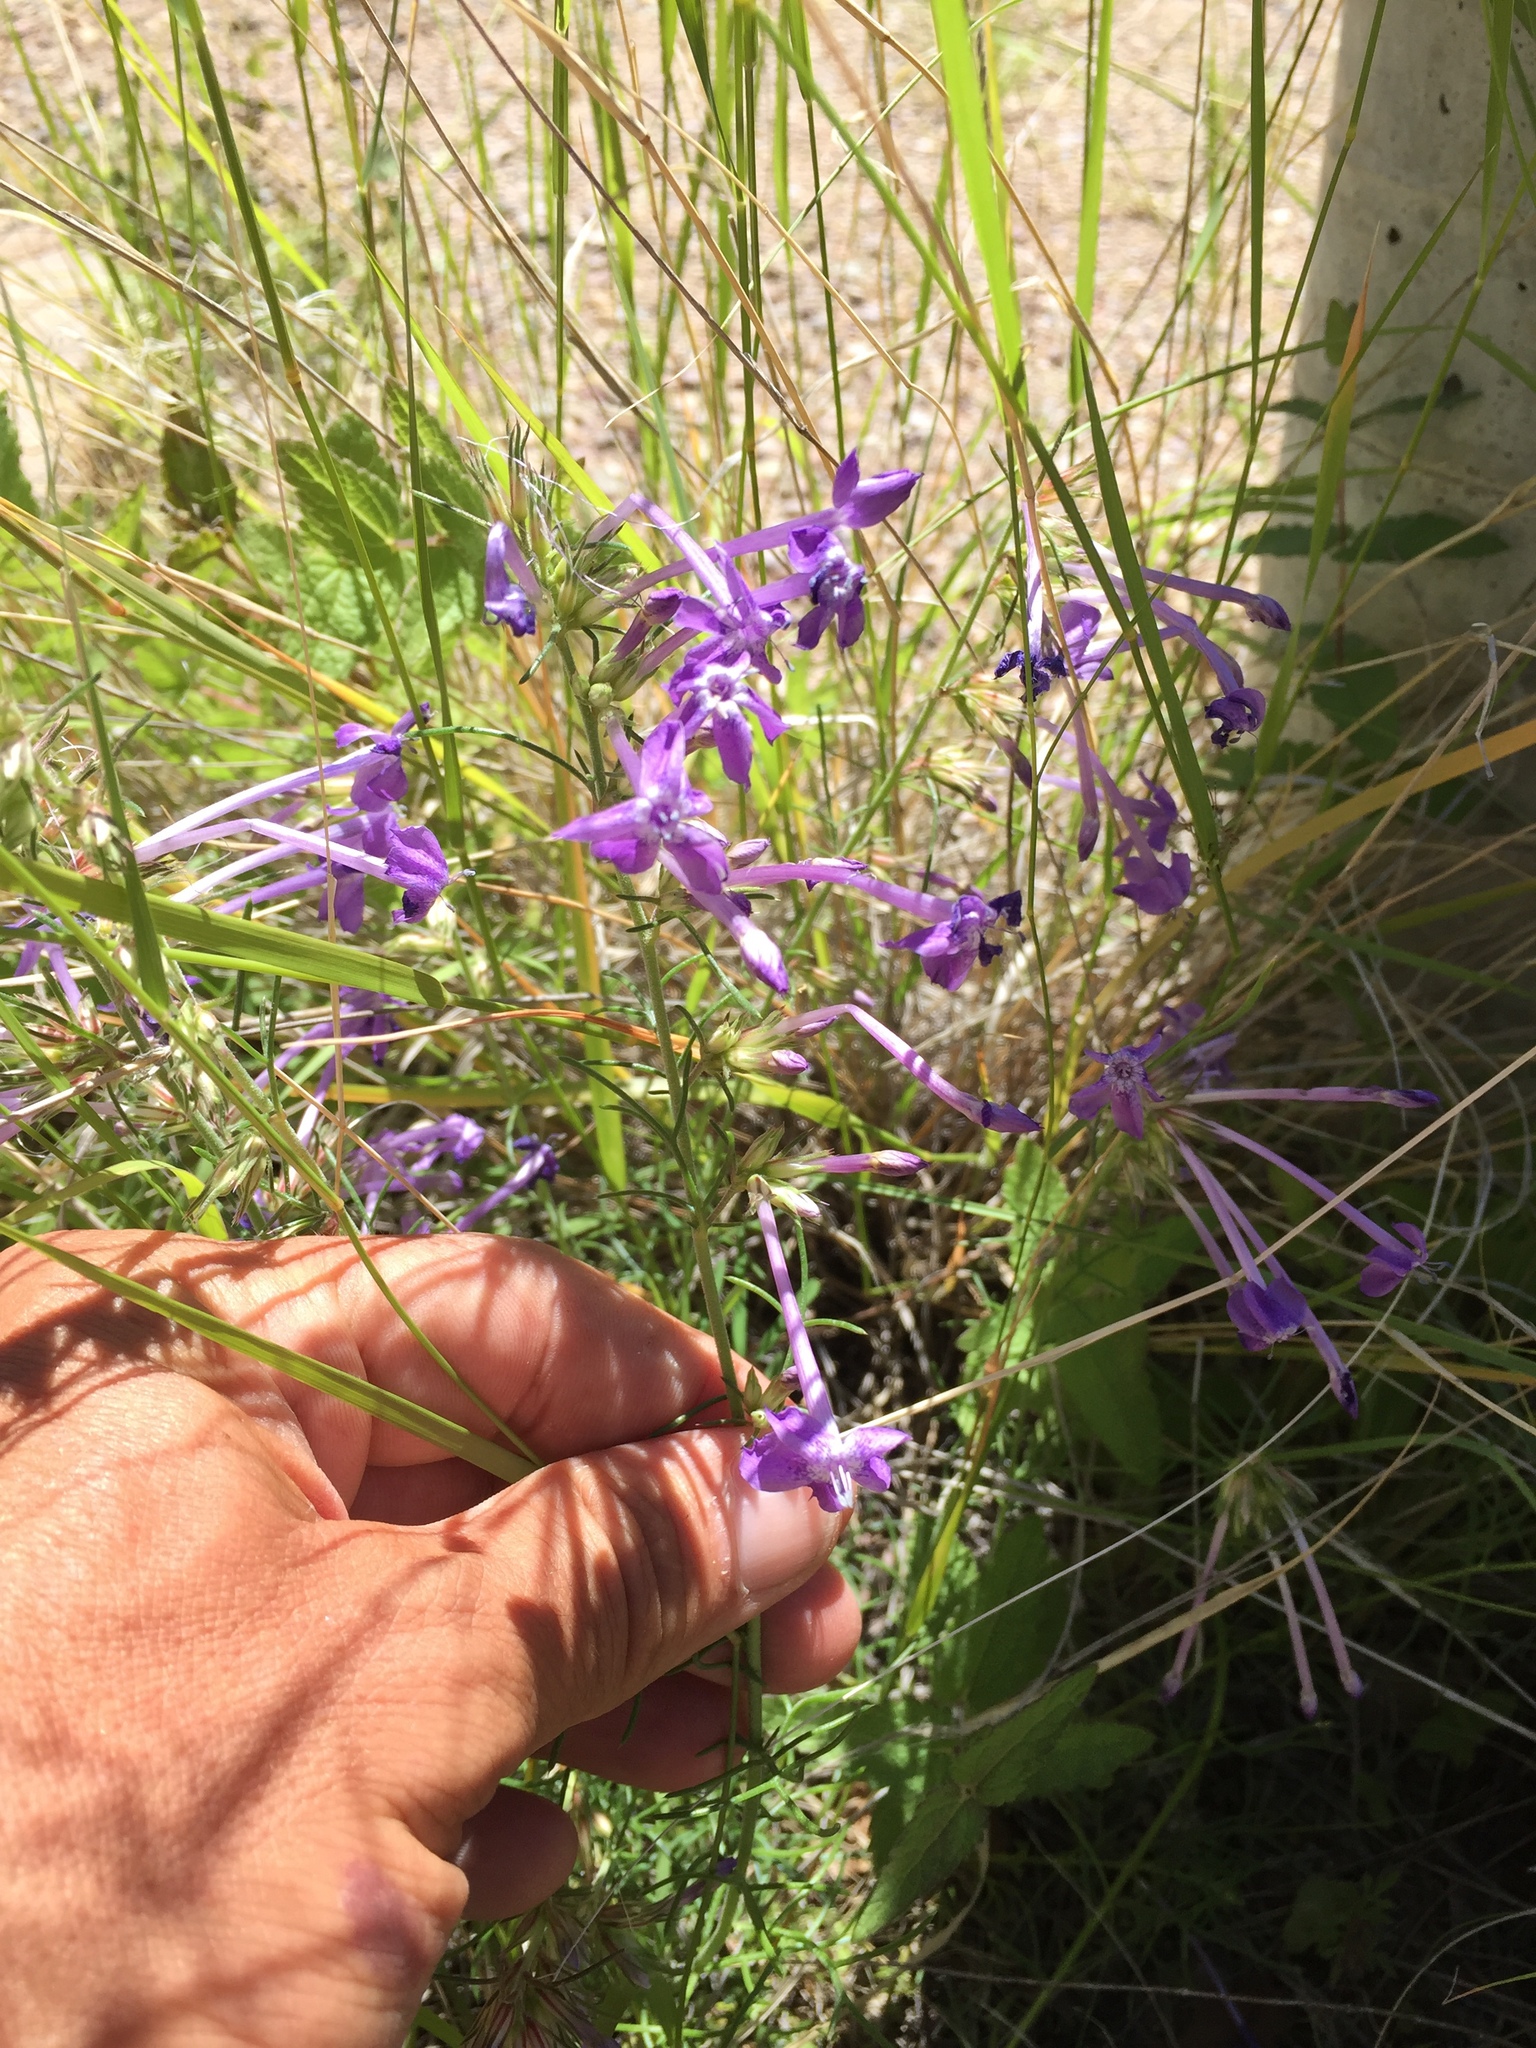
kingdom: Plantae
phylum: Tracheophyta
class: Magnoliopsida
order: Ericales
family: Polemoniaceae
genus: Ipomopsis
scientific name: Ipomopsis thurberi
